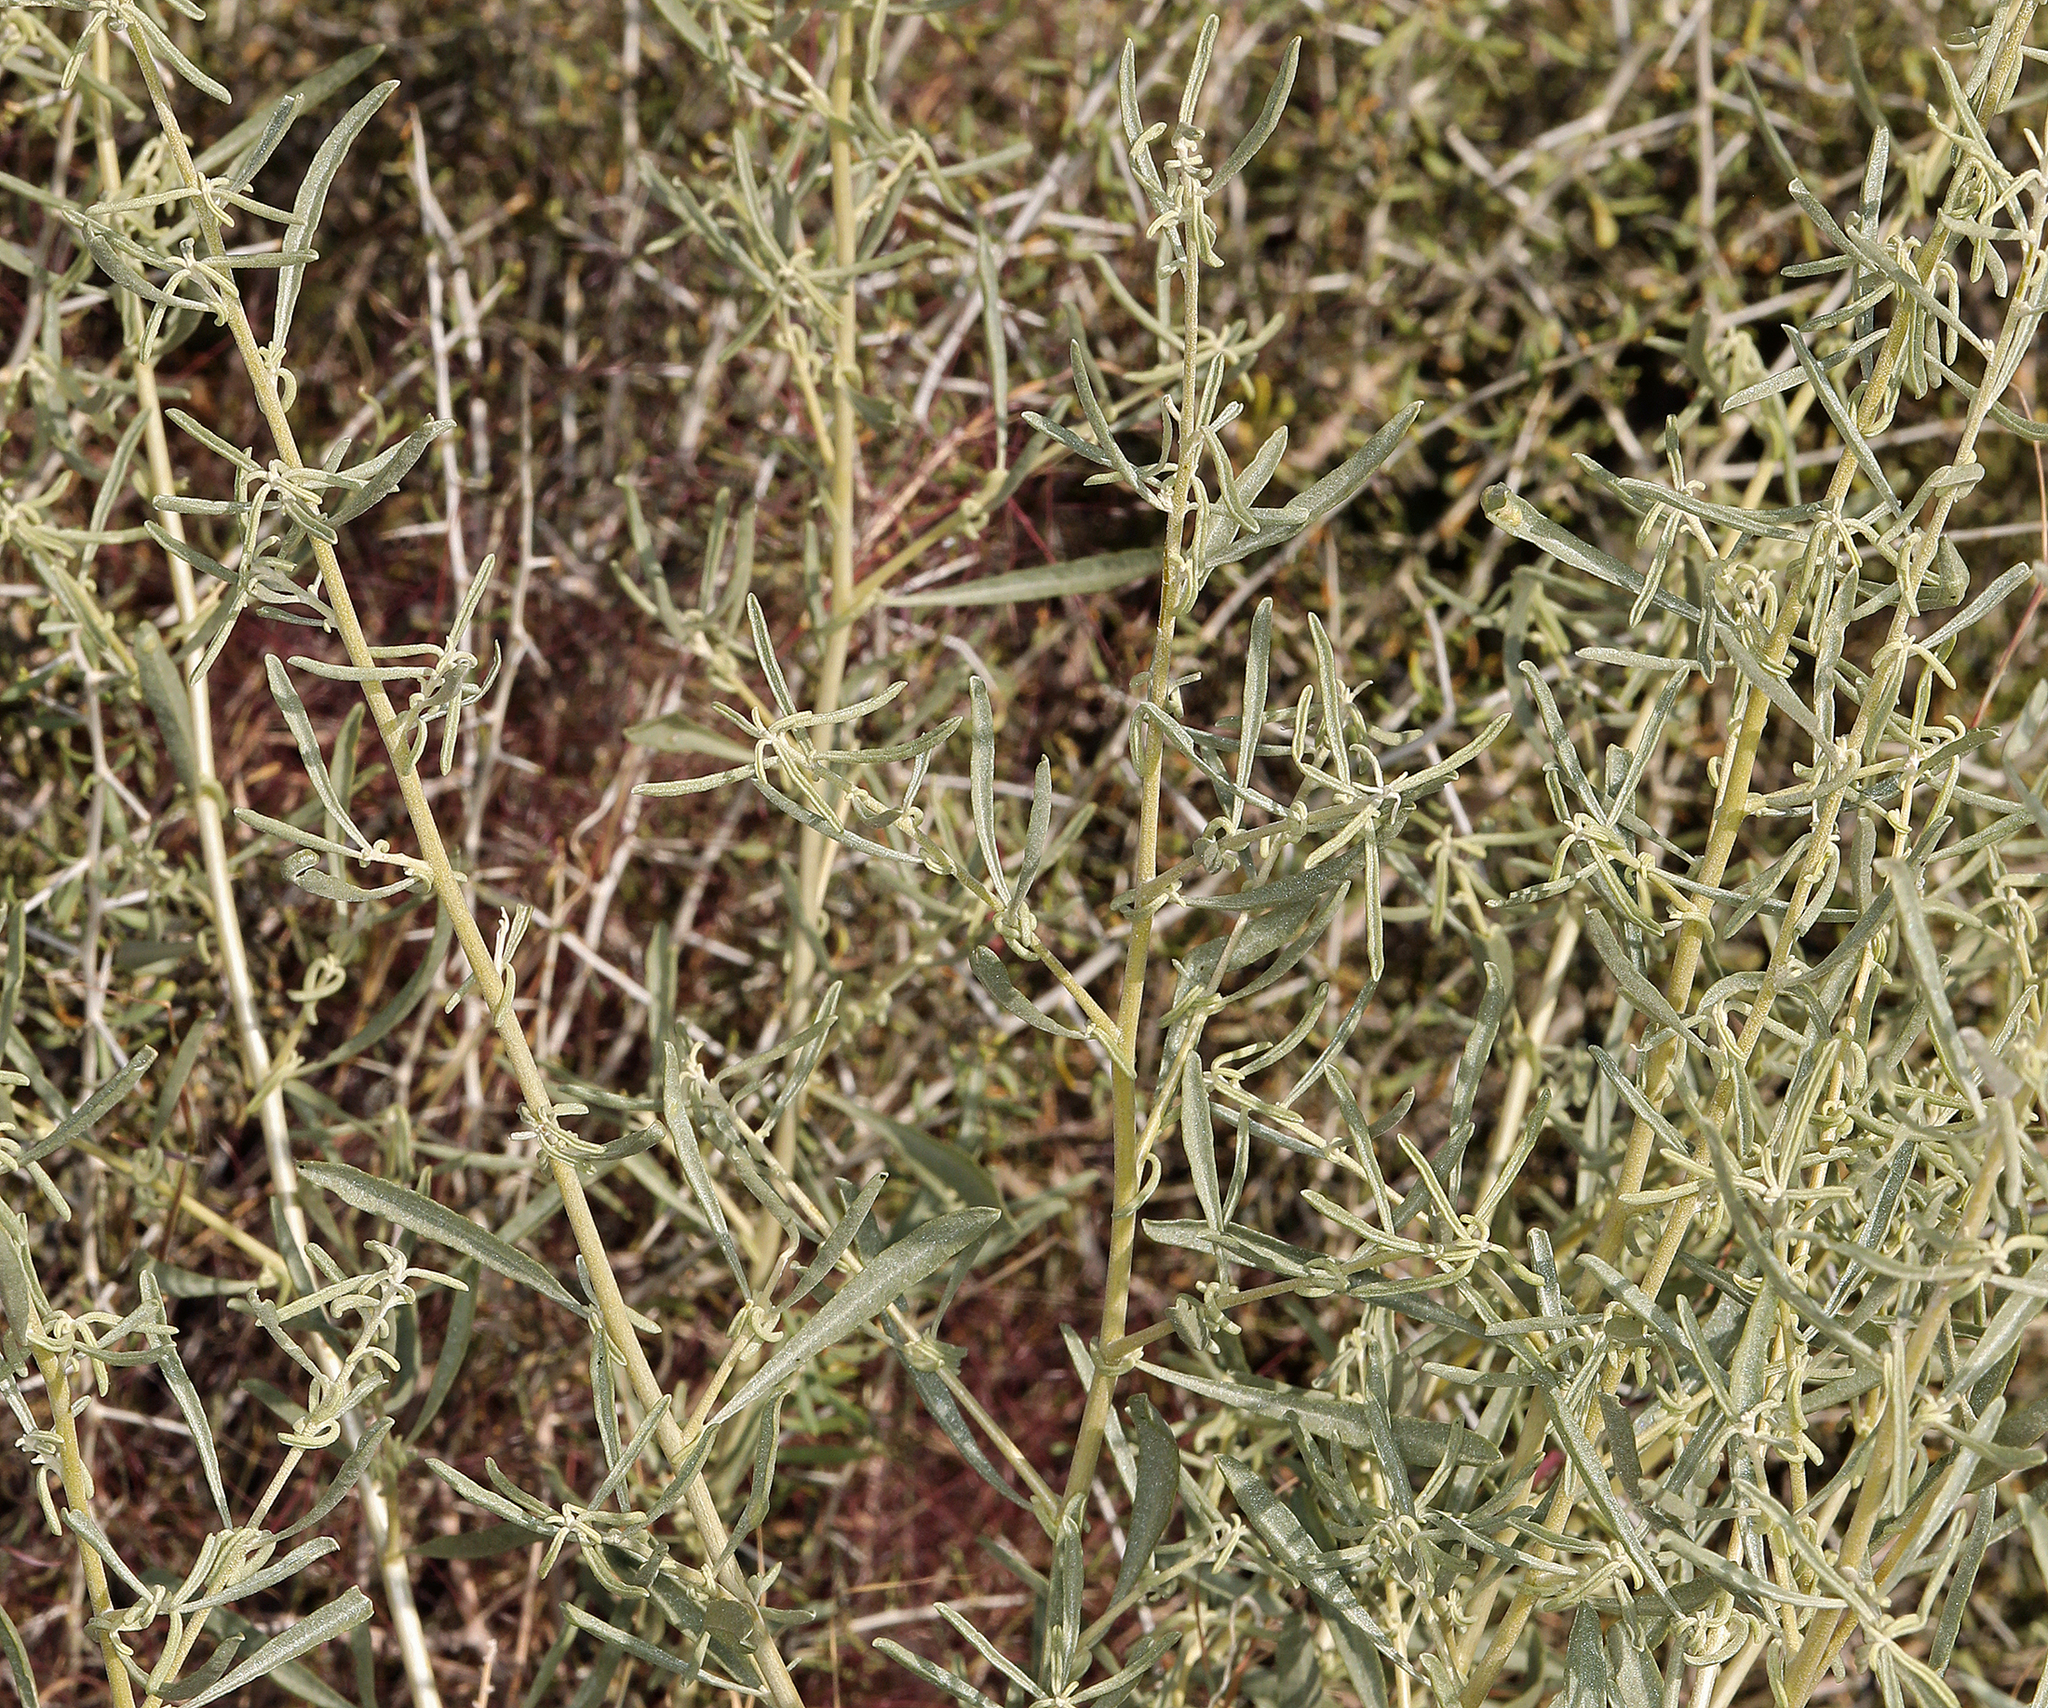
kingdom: Plantae
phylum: Tracheophyta
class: Magnoliopsida
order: Caryophyllales
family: Amaranthaceae
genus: Atriplex
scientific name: Atriplex canescens
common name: Four-wing saltbush
